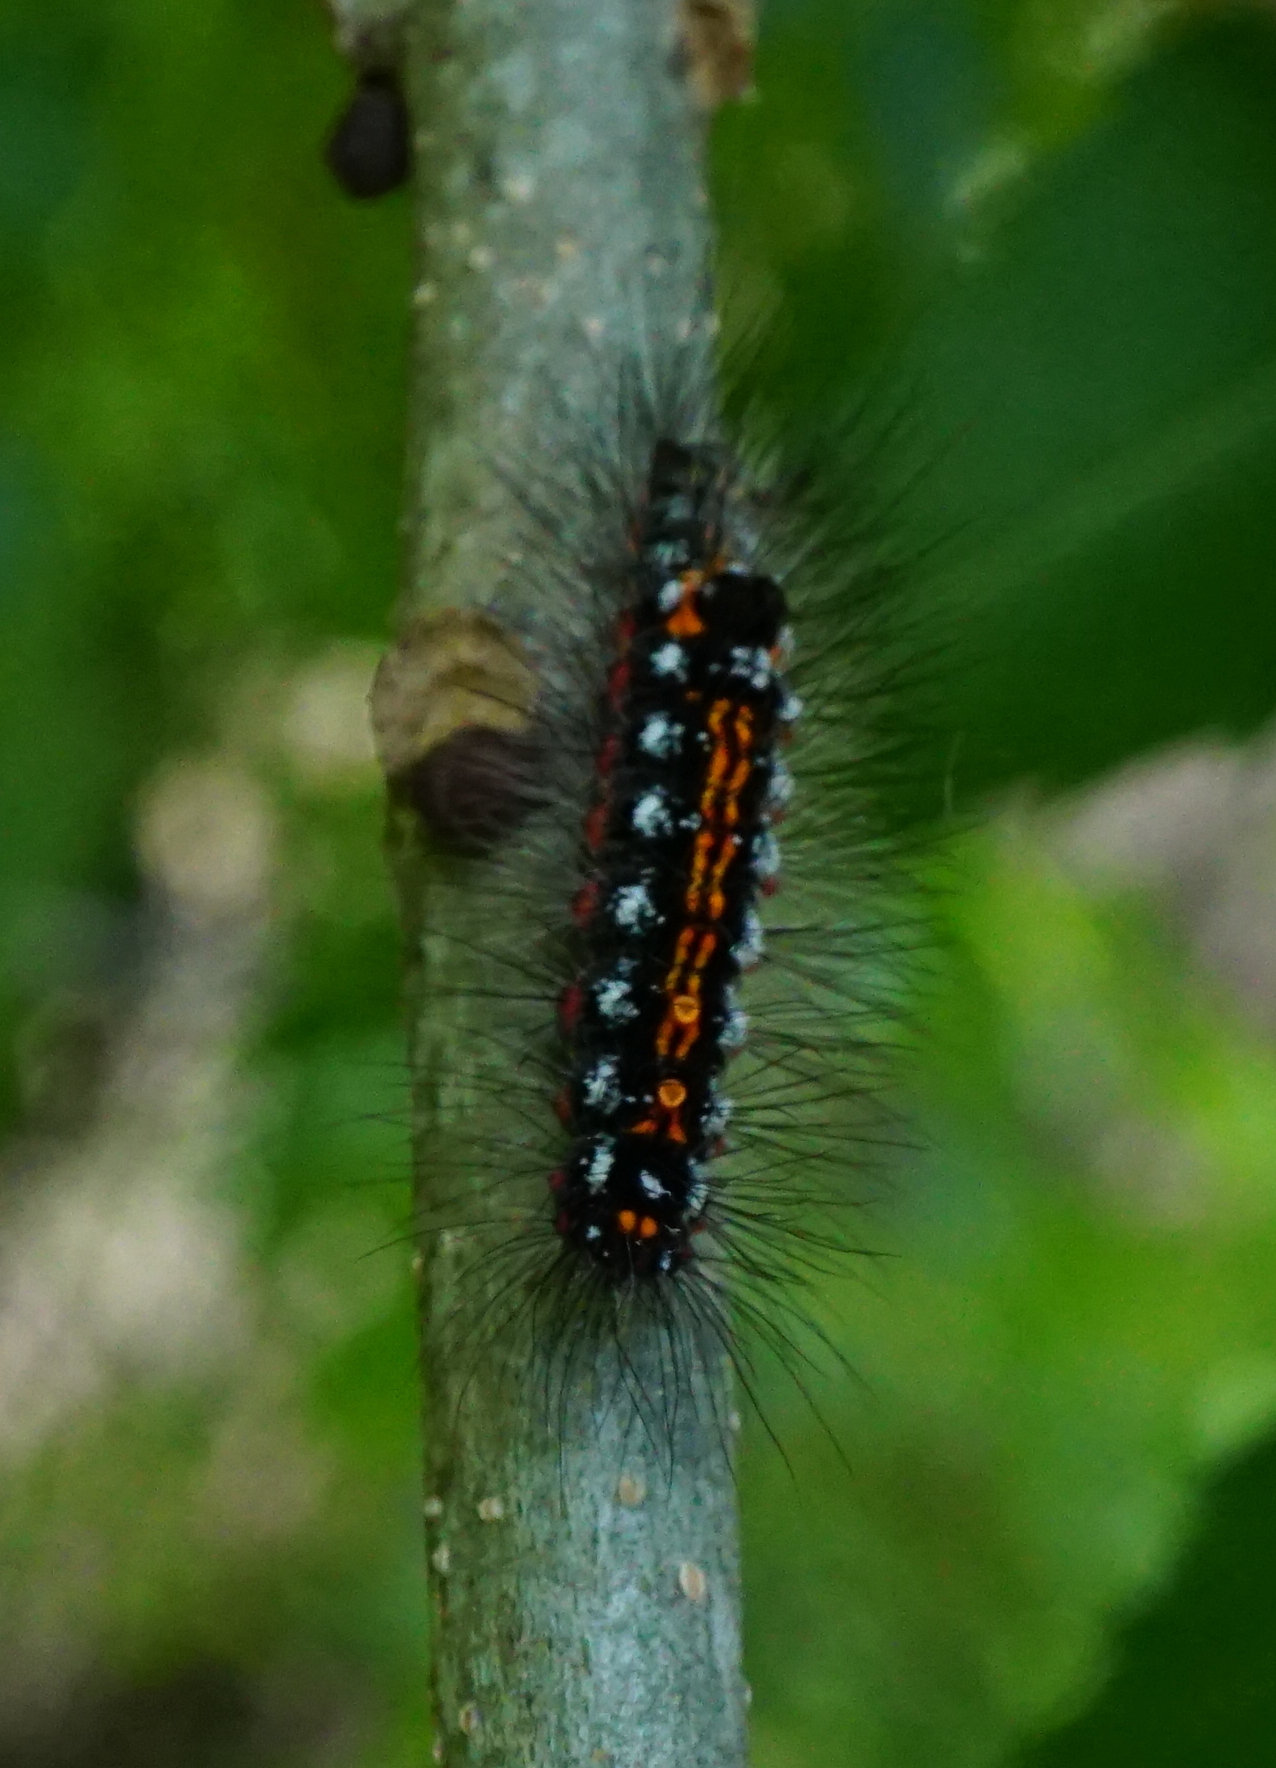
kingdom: Animalia
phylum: Arthropoda
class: Insecta
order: Lepidoptera
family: Erebidae
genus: Sphrageidus
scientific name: Sphrageidus similis
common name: Yellow-tail
